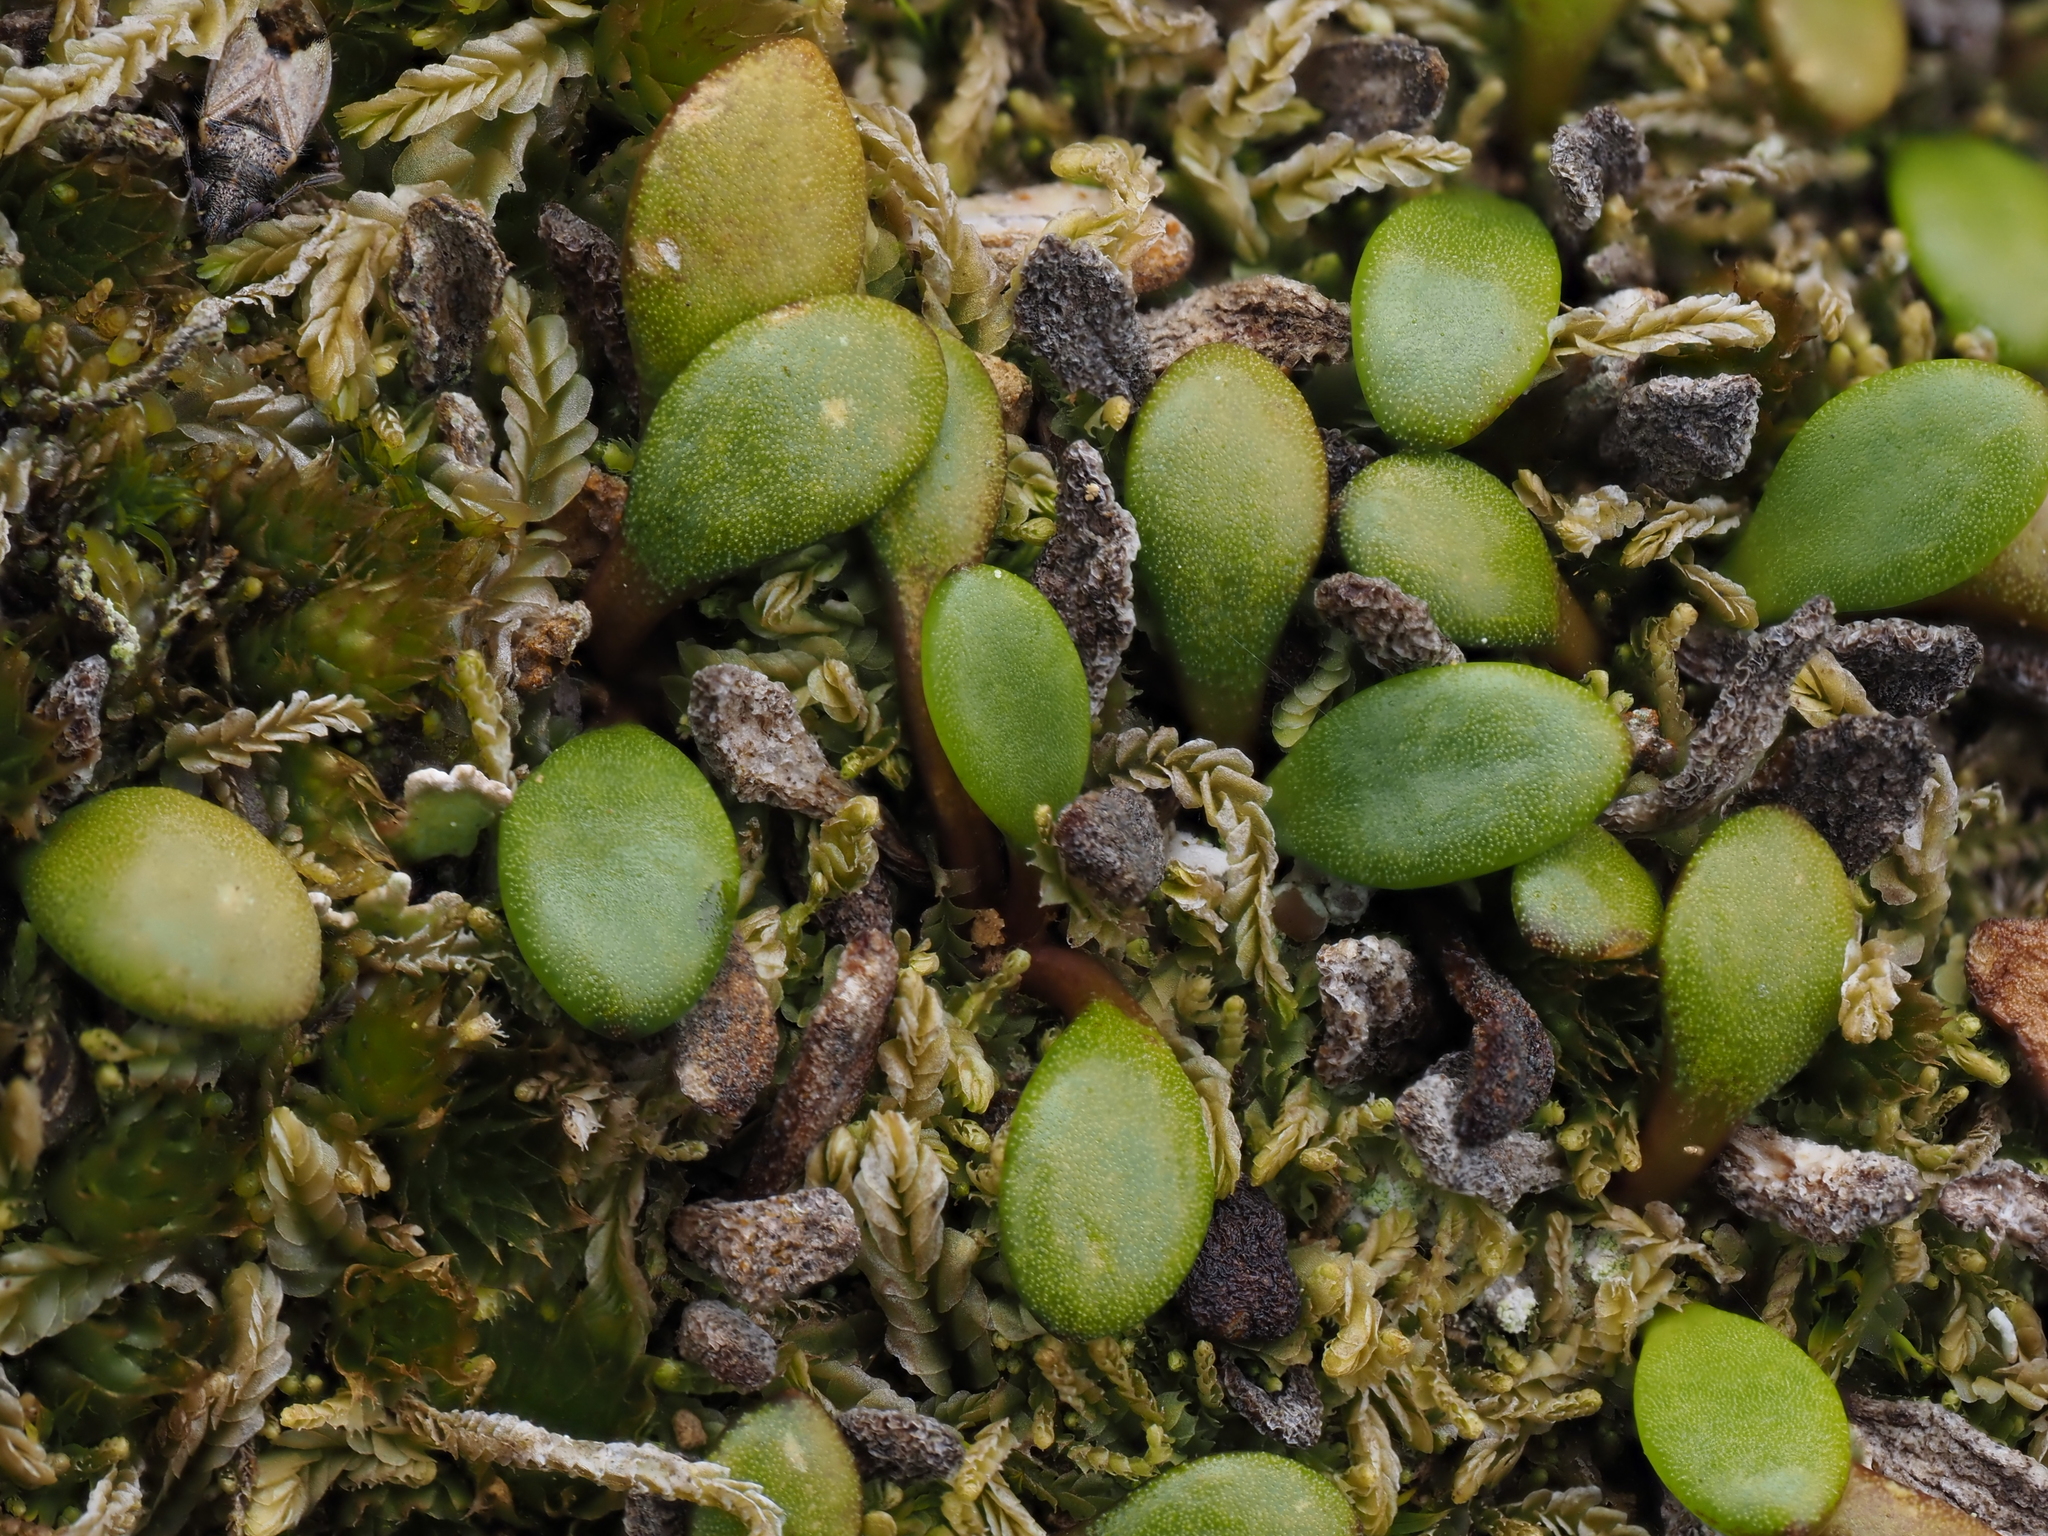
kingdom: Plantae
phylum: Tracheophyta
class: Magnoliopsida
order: Asterales
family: Goodeniaceae
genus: Goodenia
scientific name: Goodenia radicans
